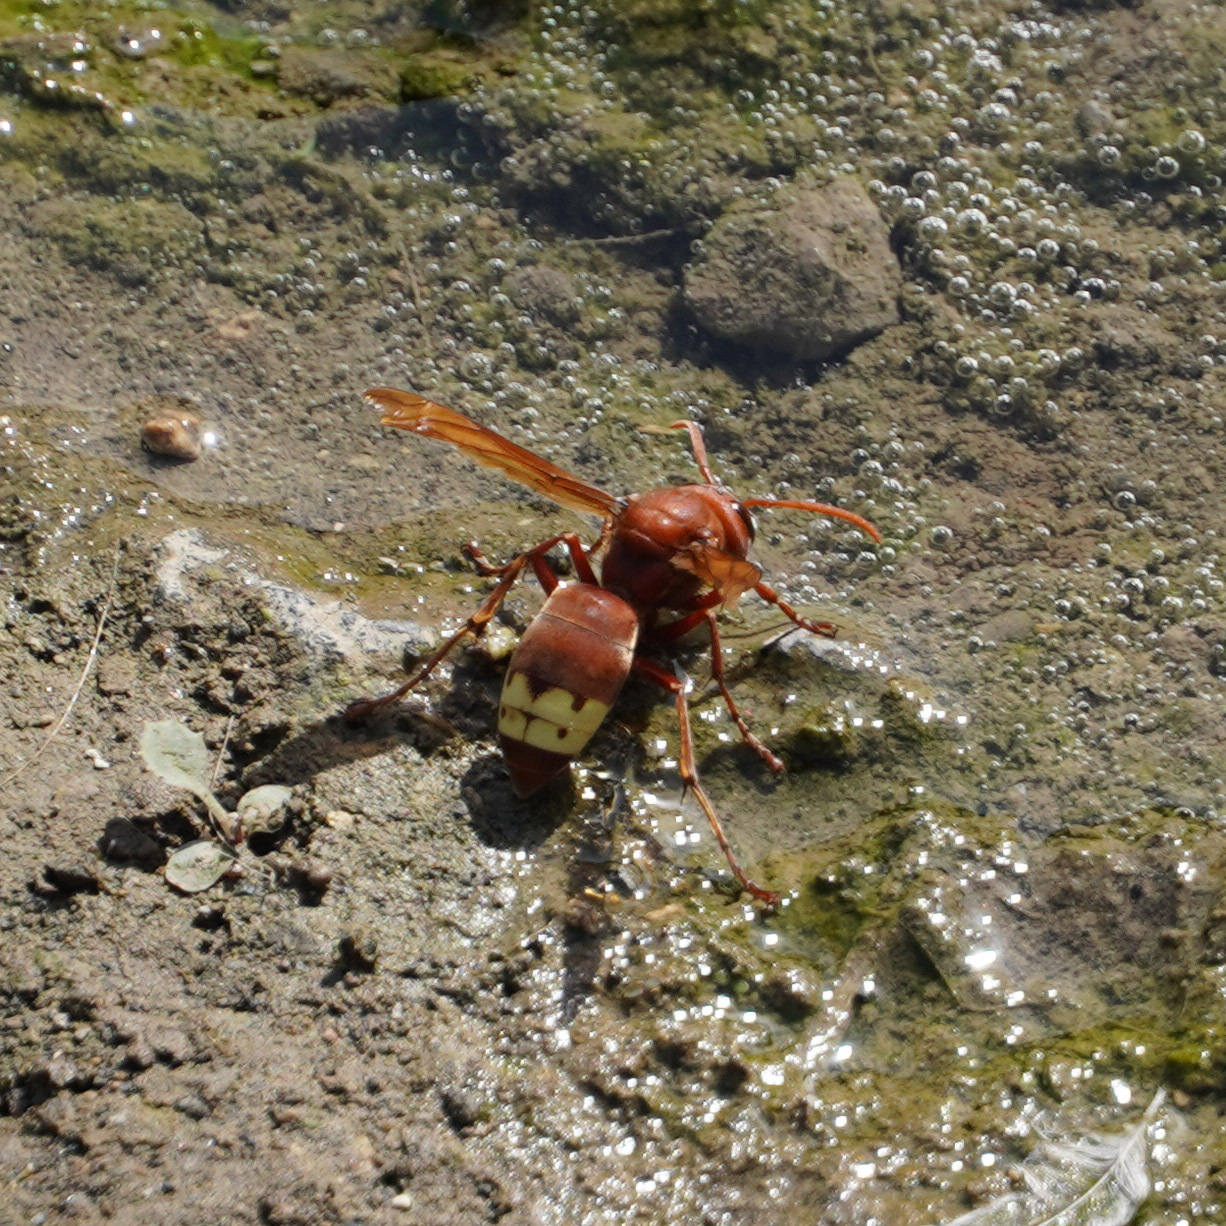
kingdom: Animalia
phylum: Arthropoda
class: Insecta
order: Hymenoptera
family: Vespidae
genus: Vespa
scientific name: Vespa orientalis
